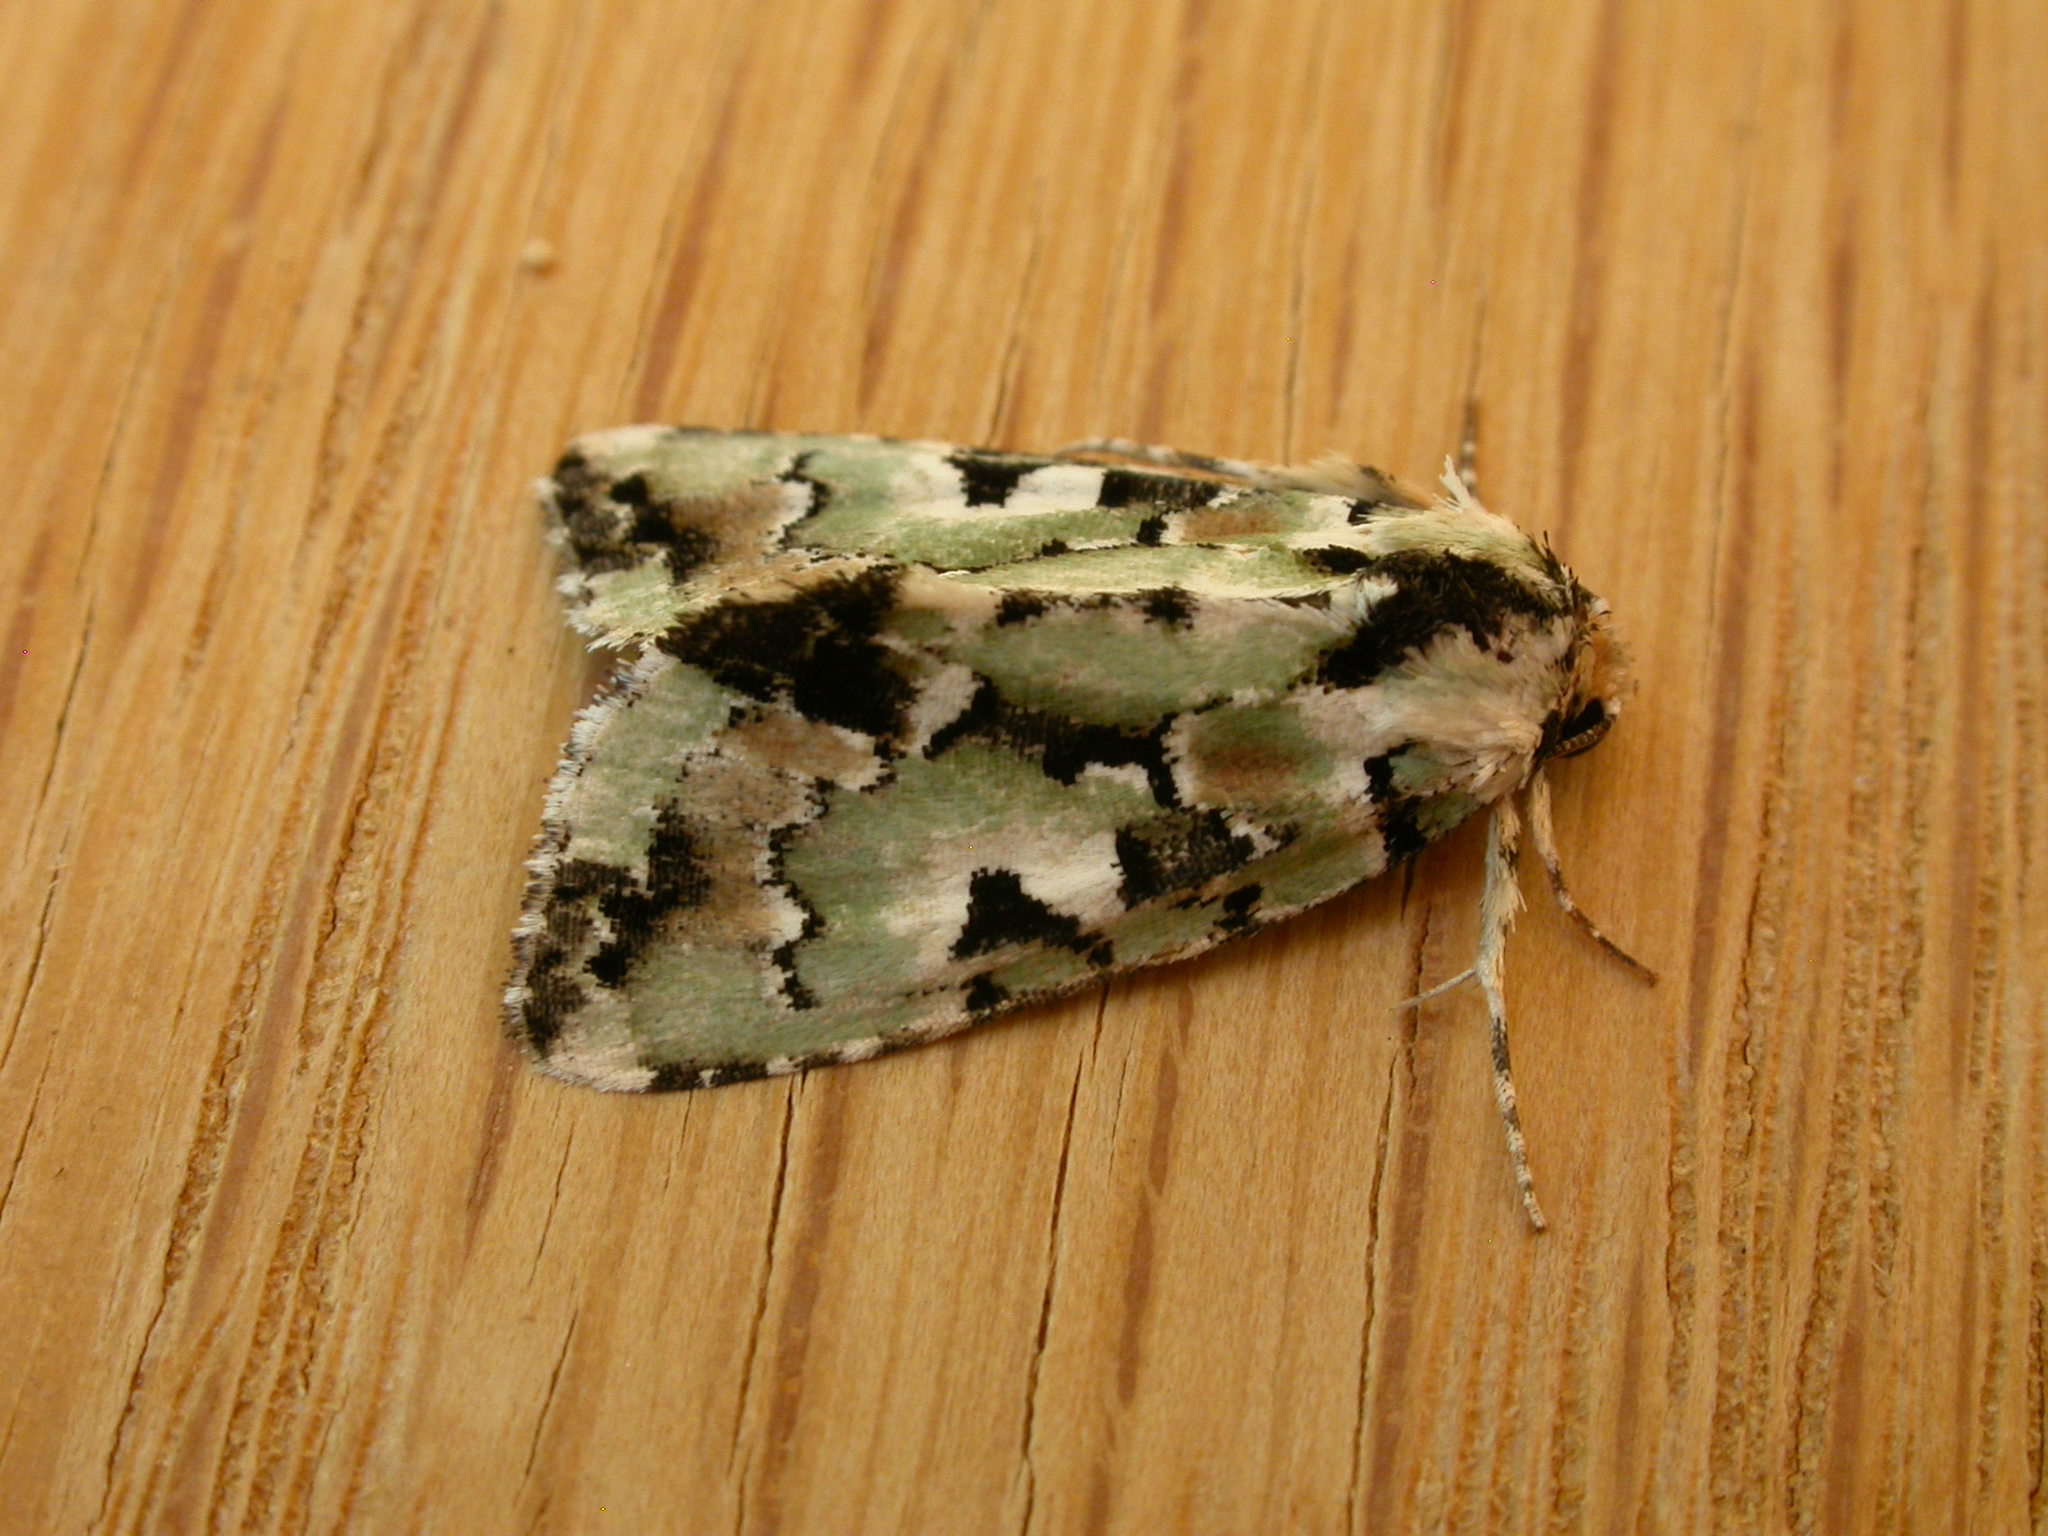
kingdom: Animalia
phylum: Arthropoda
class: Insecta
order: Lepidoptera
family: Noctuidae
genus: Epicyrtica
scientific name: Epicyrtica metallica
